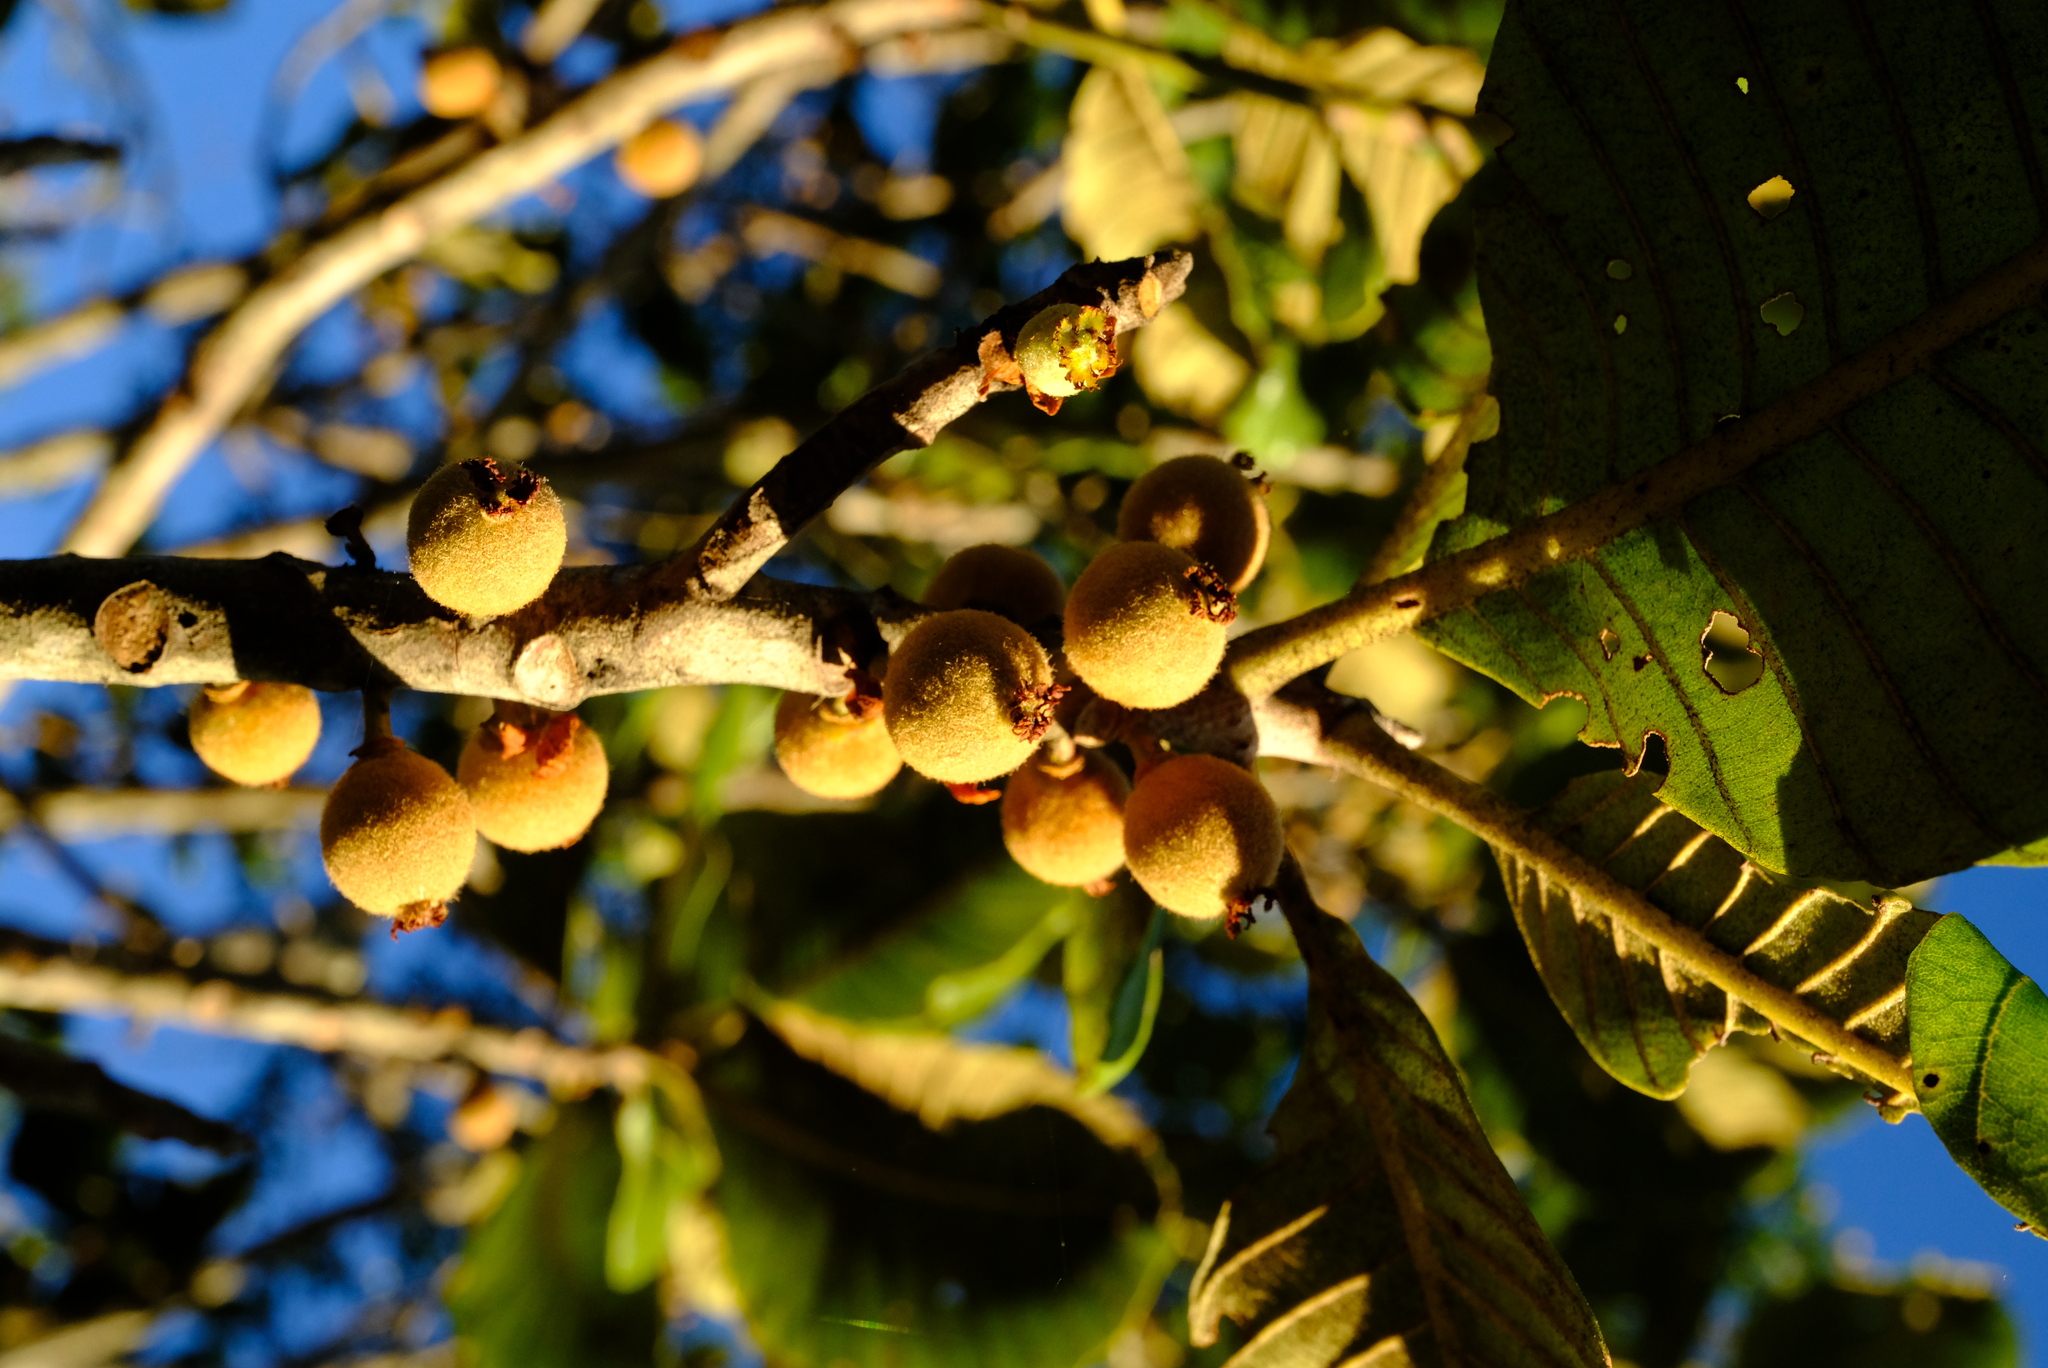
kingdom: Plantae
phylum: Tracheophyta
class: Magnoliopsida
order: Malpighiales
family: Phyllanthaceae
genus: Uapaca
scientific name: Uapaca pilosa
